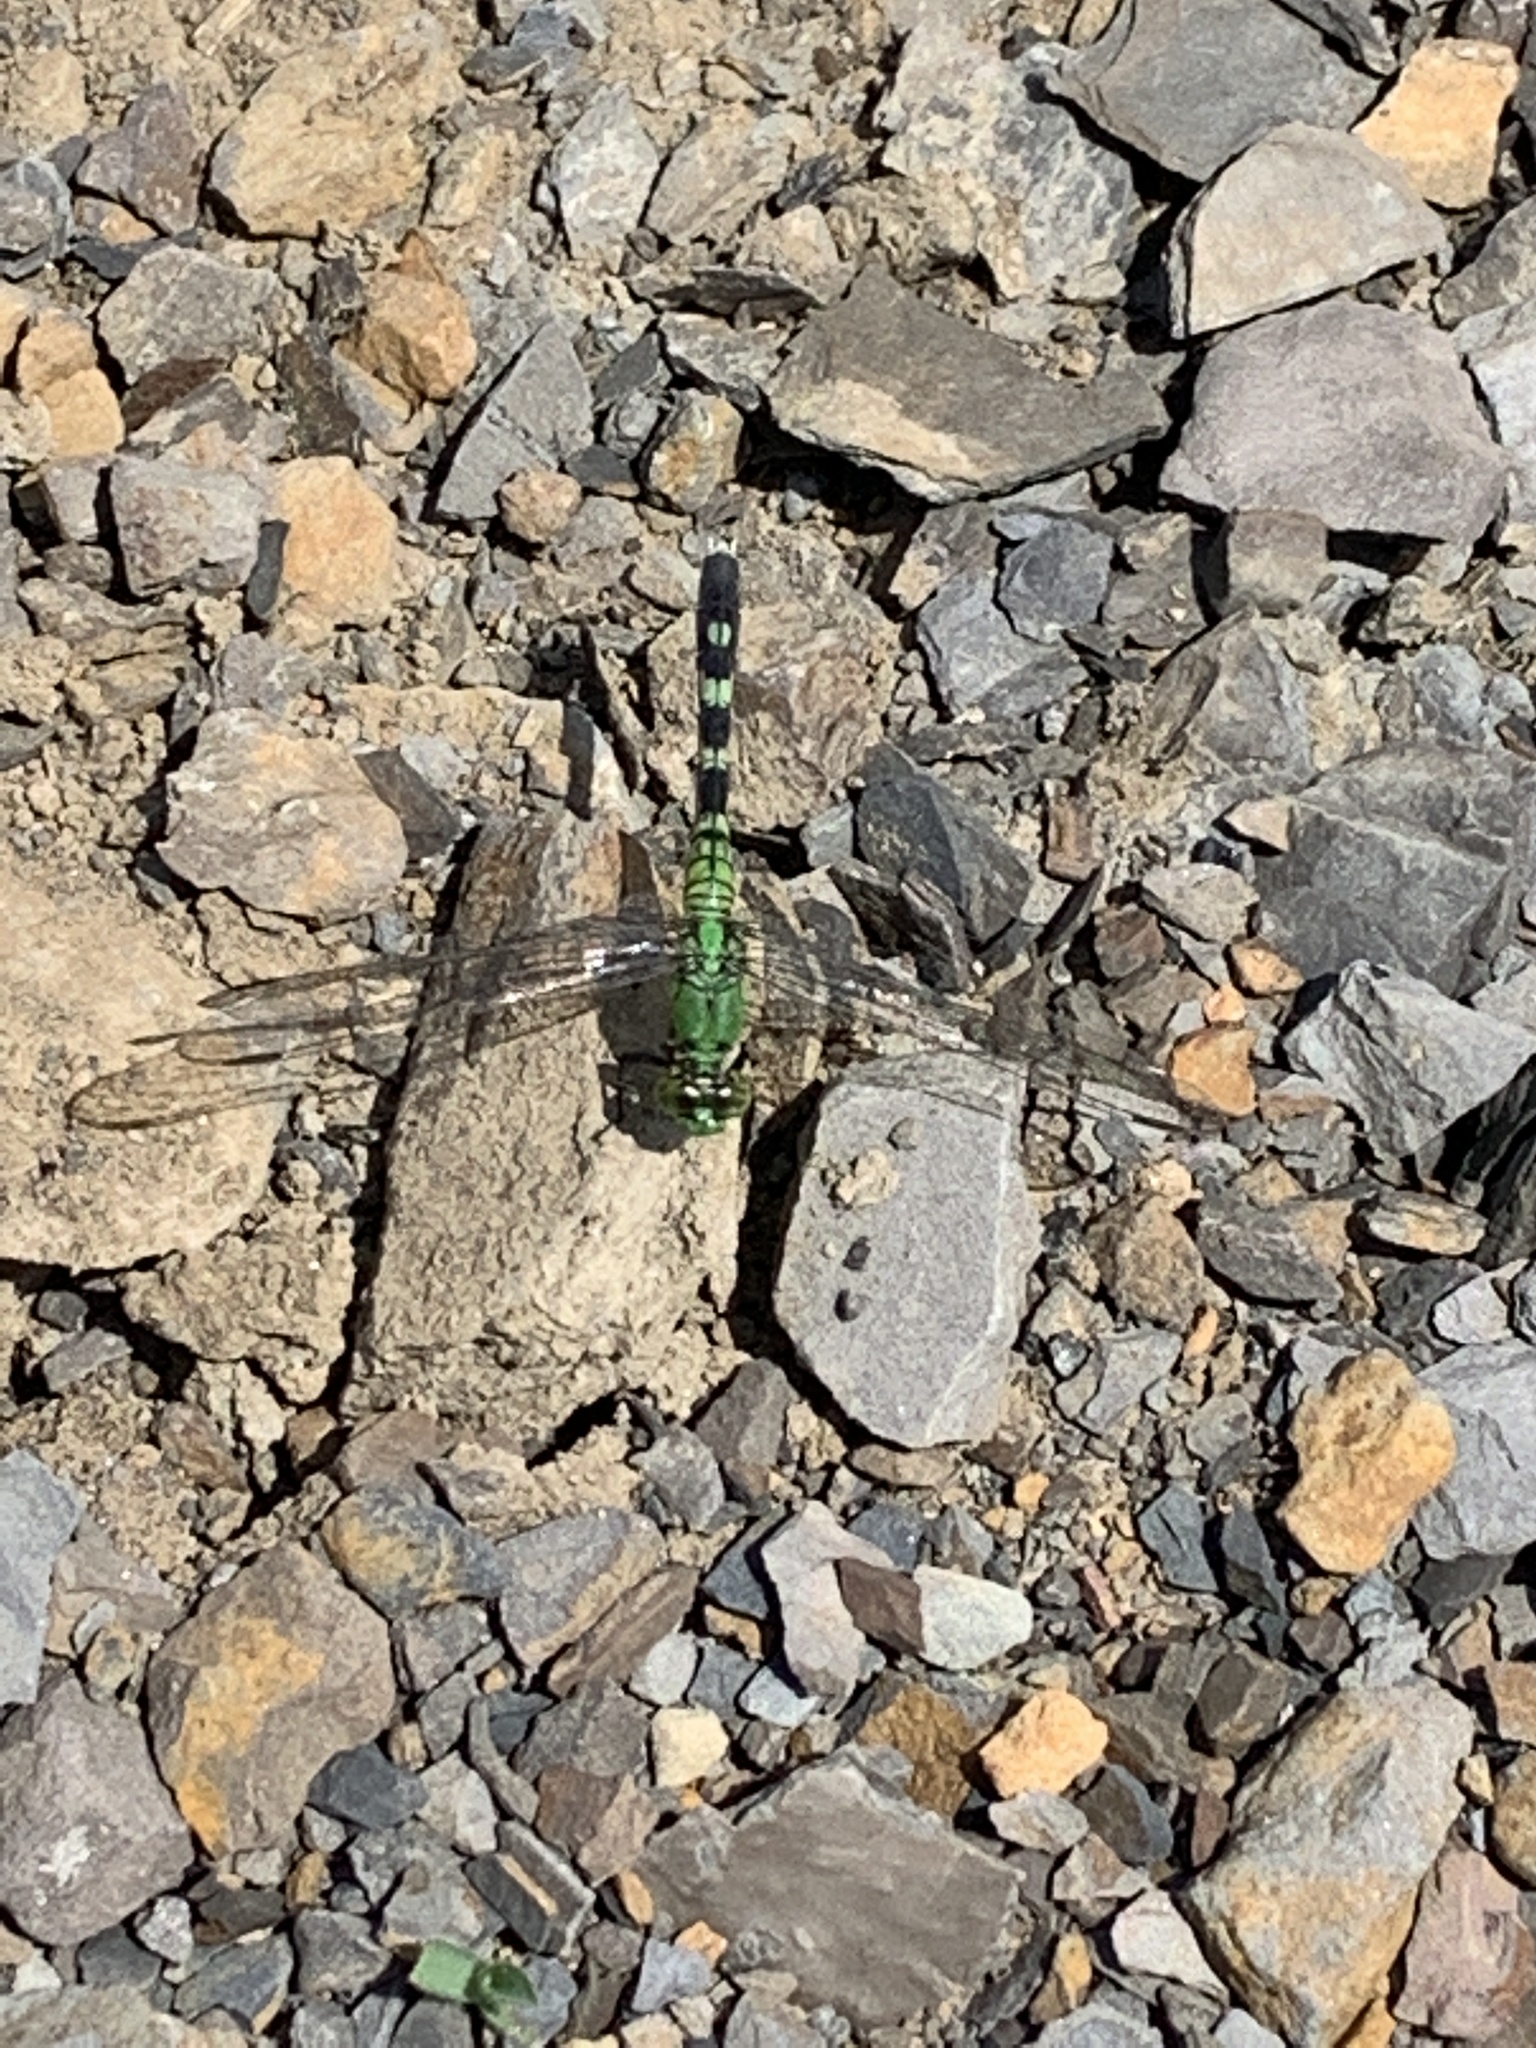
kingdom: Animalia
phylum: Arthropoda
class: Insecta
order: Odonata
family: Libellulidae
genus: Erythemis
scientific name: Erythemis simplicicollis
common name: Eastern pondhawk
